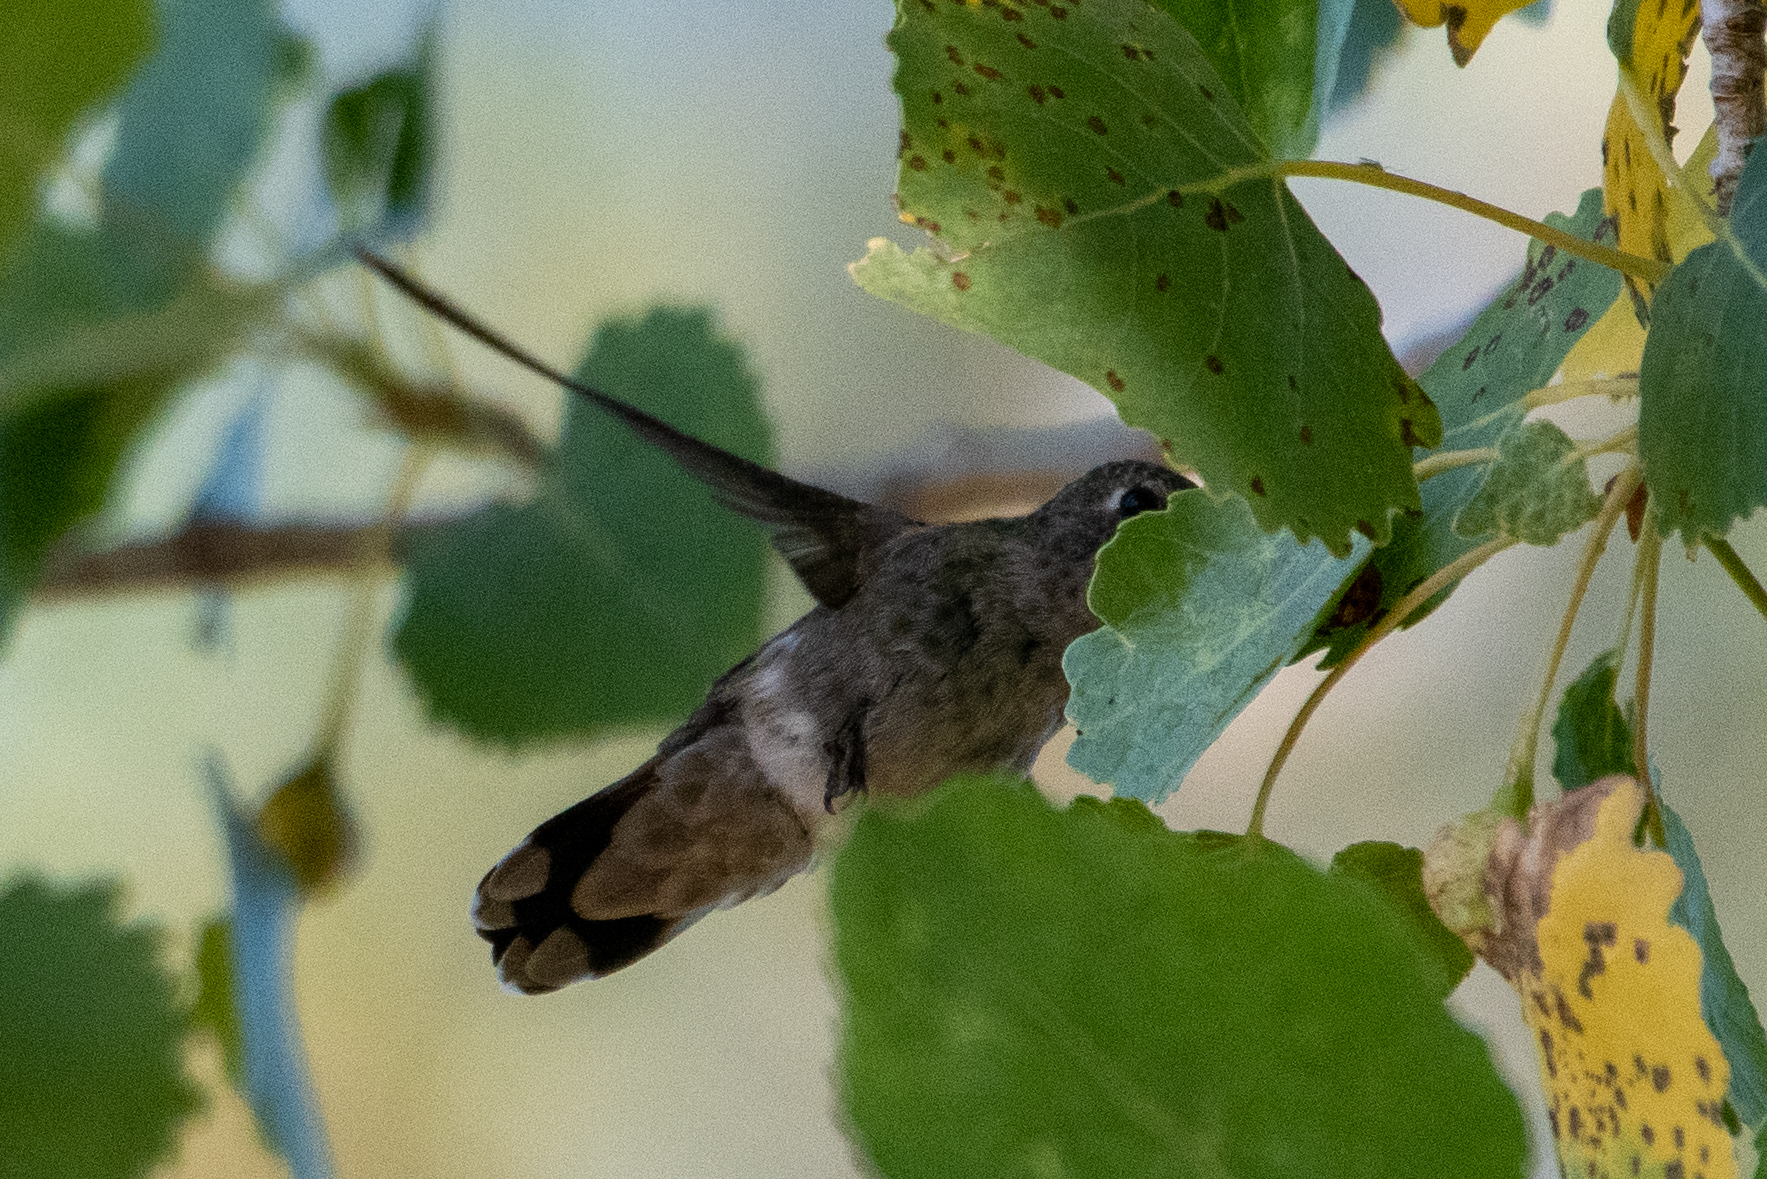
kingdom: Animalia
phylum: Chordata
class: Aves
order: Apodiformes
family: Trochilidae
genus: Calypte
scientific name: Calypte anna
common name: Anna's hummingbird
